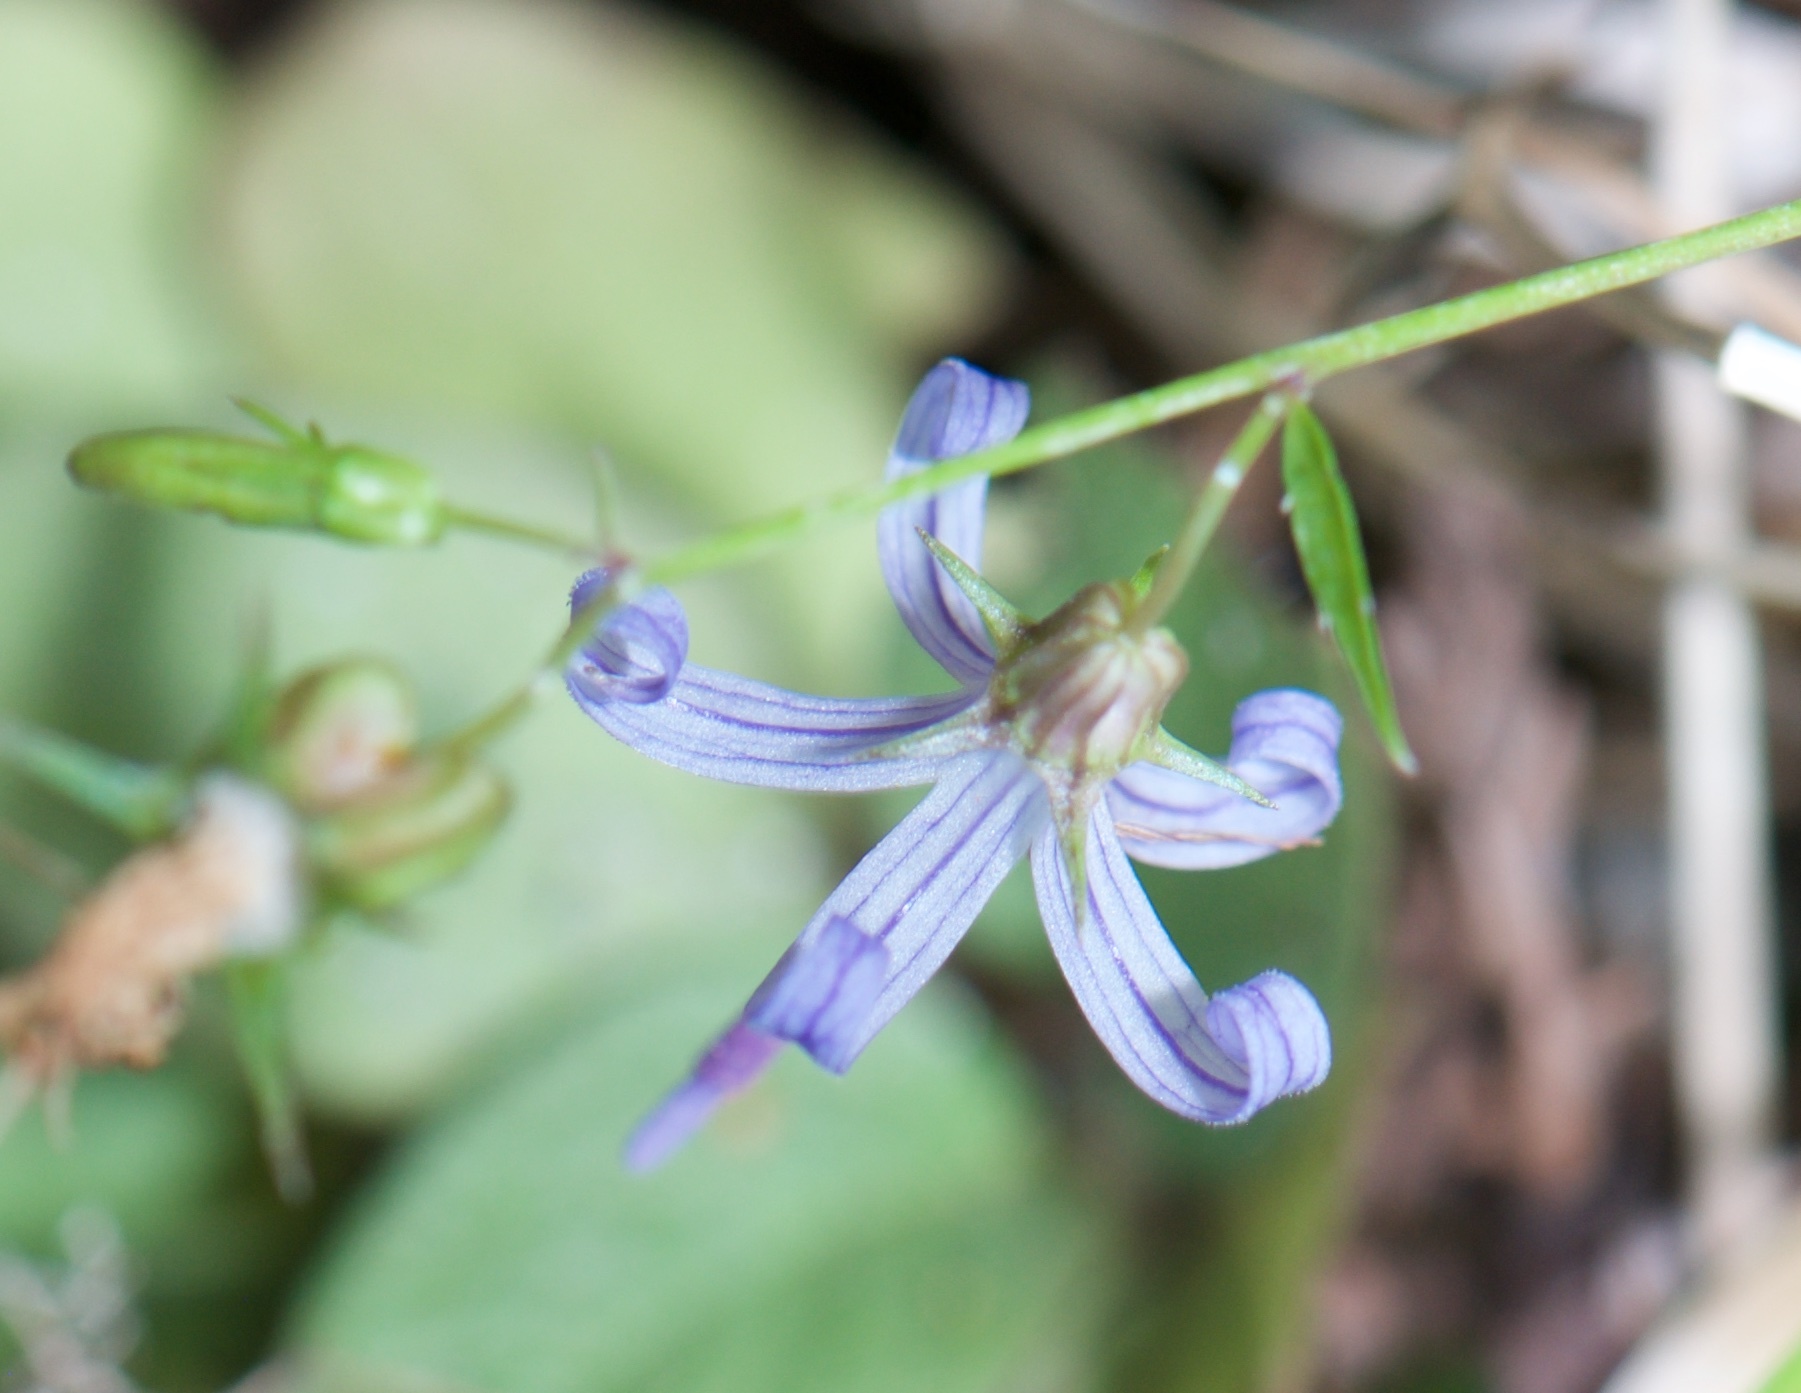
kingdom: Plantae
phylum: Tracheophyta
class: Magnoliopsida
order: Asterales
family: Campanulaceae
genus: Smithiastrum
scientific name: Smithiastrum prenanthoides
